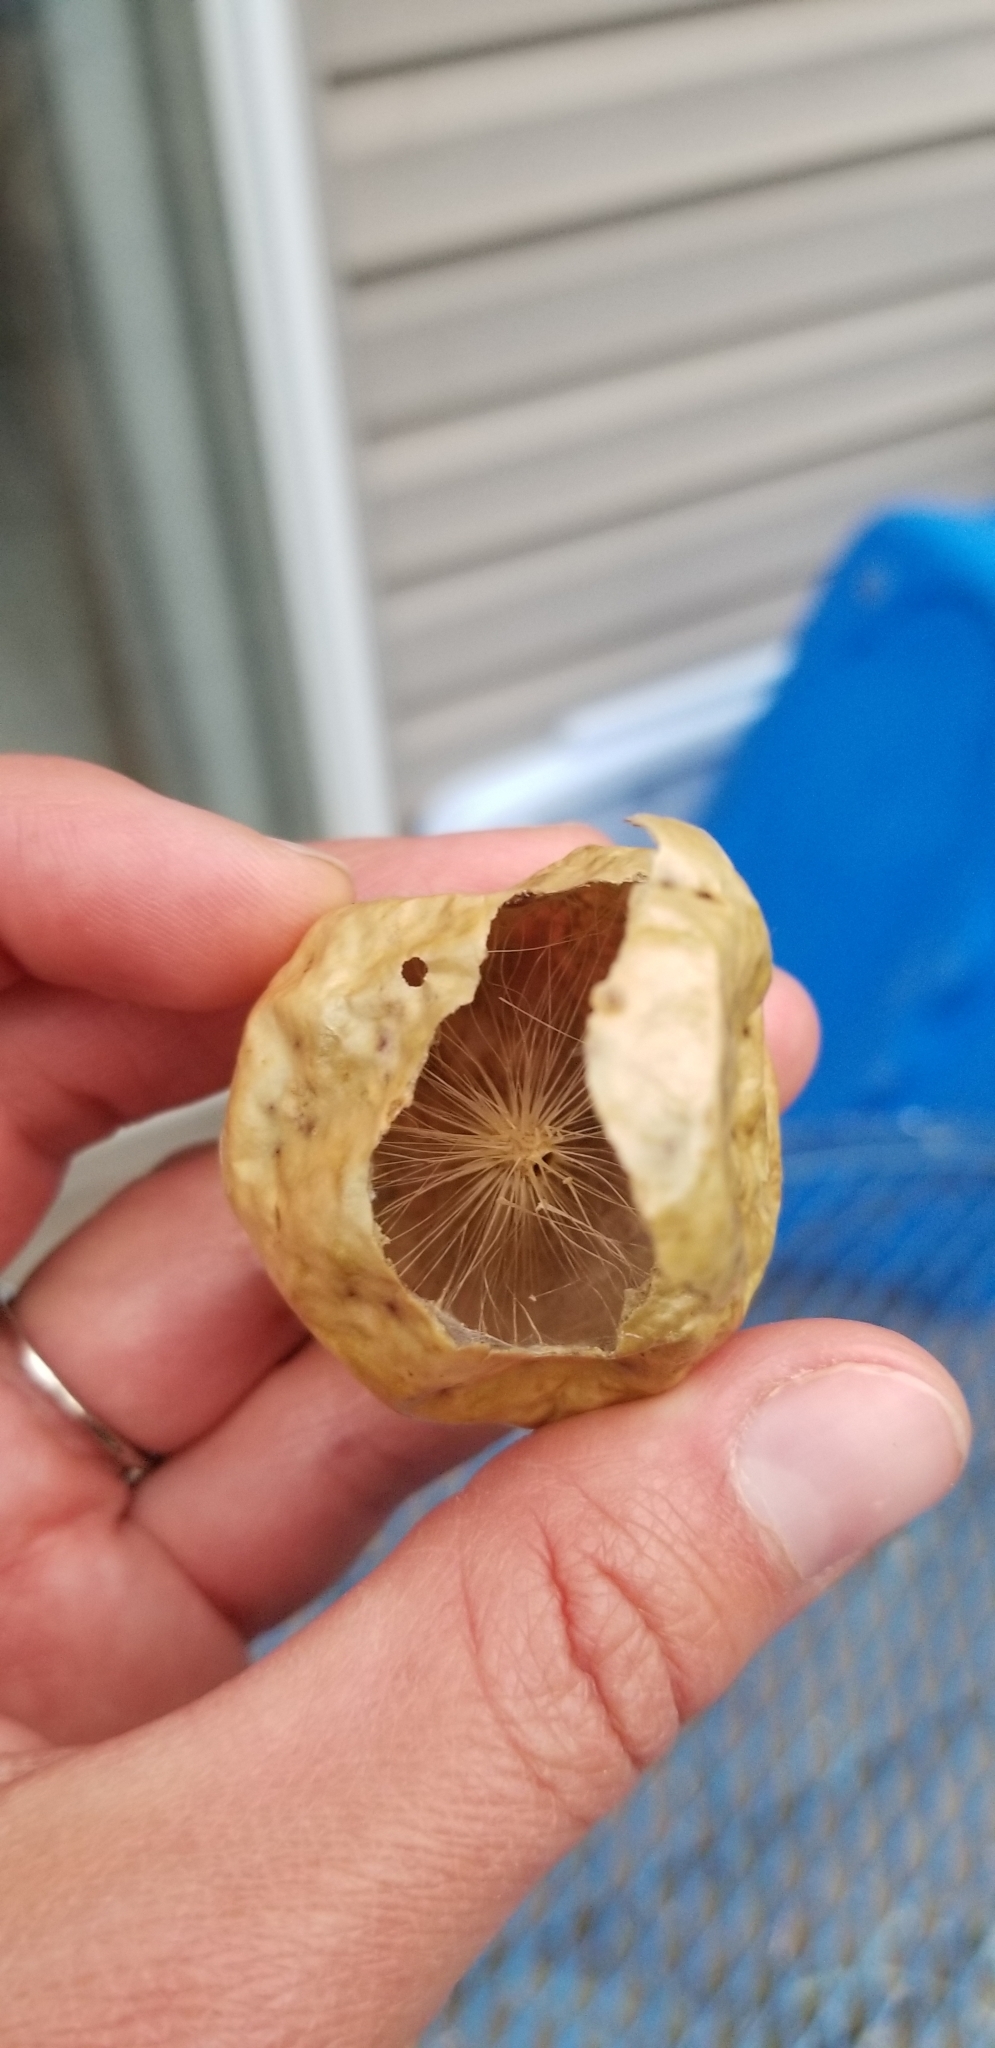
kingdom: Animalia
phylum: Arthropoda
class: Insecta
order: Hymenoptera
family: Cynipidae
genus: Amphibolips
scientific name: Amphibolips
